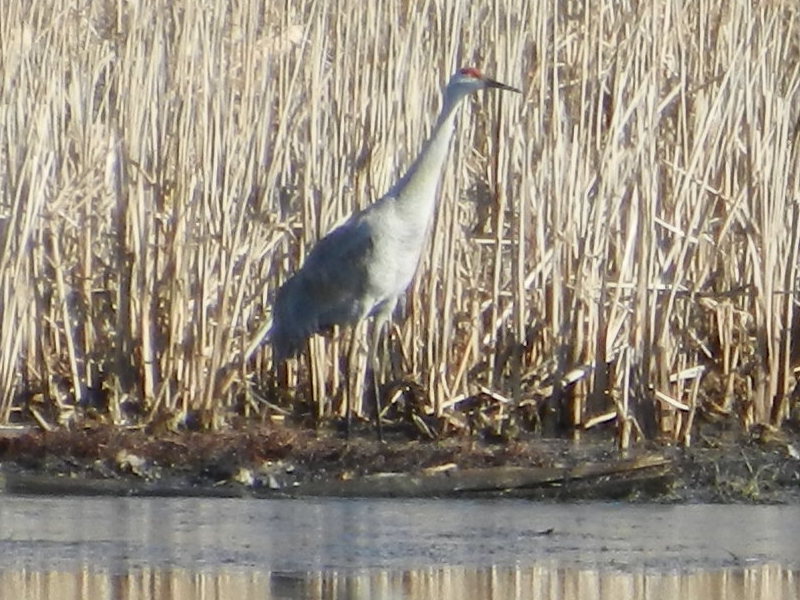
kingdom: Animalia
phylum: Chordata
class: Aves
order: Gruiformes
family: Gruidae
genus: Grus
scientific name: Grus canadensis
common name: Sandhill crane
